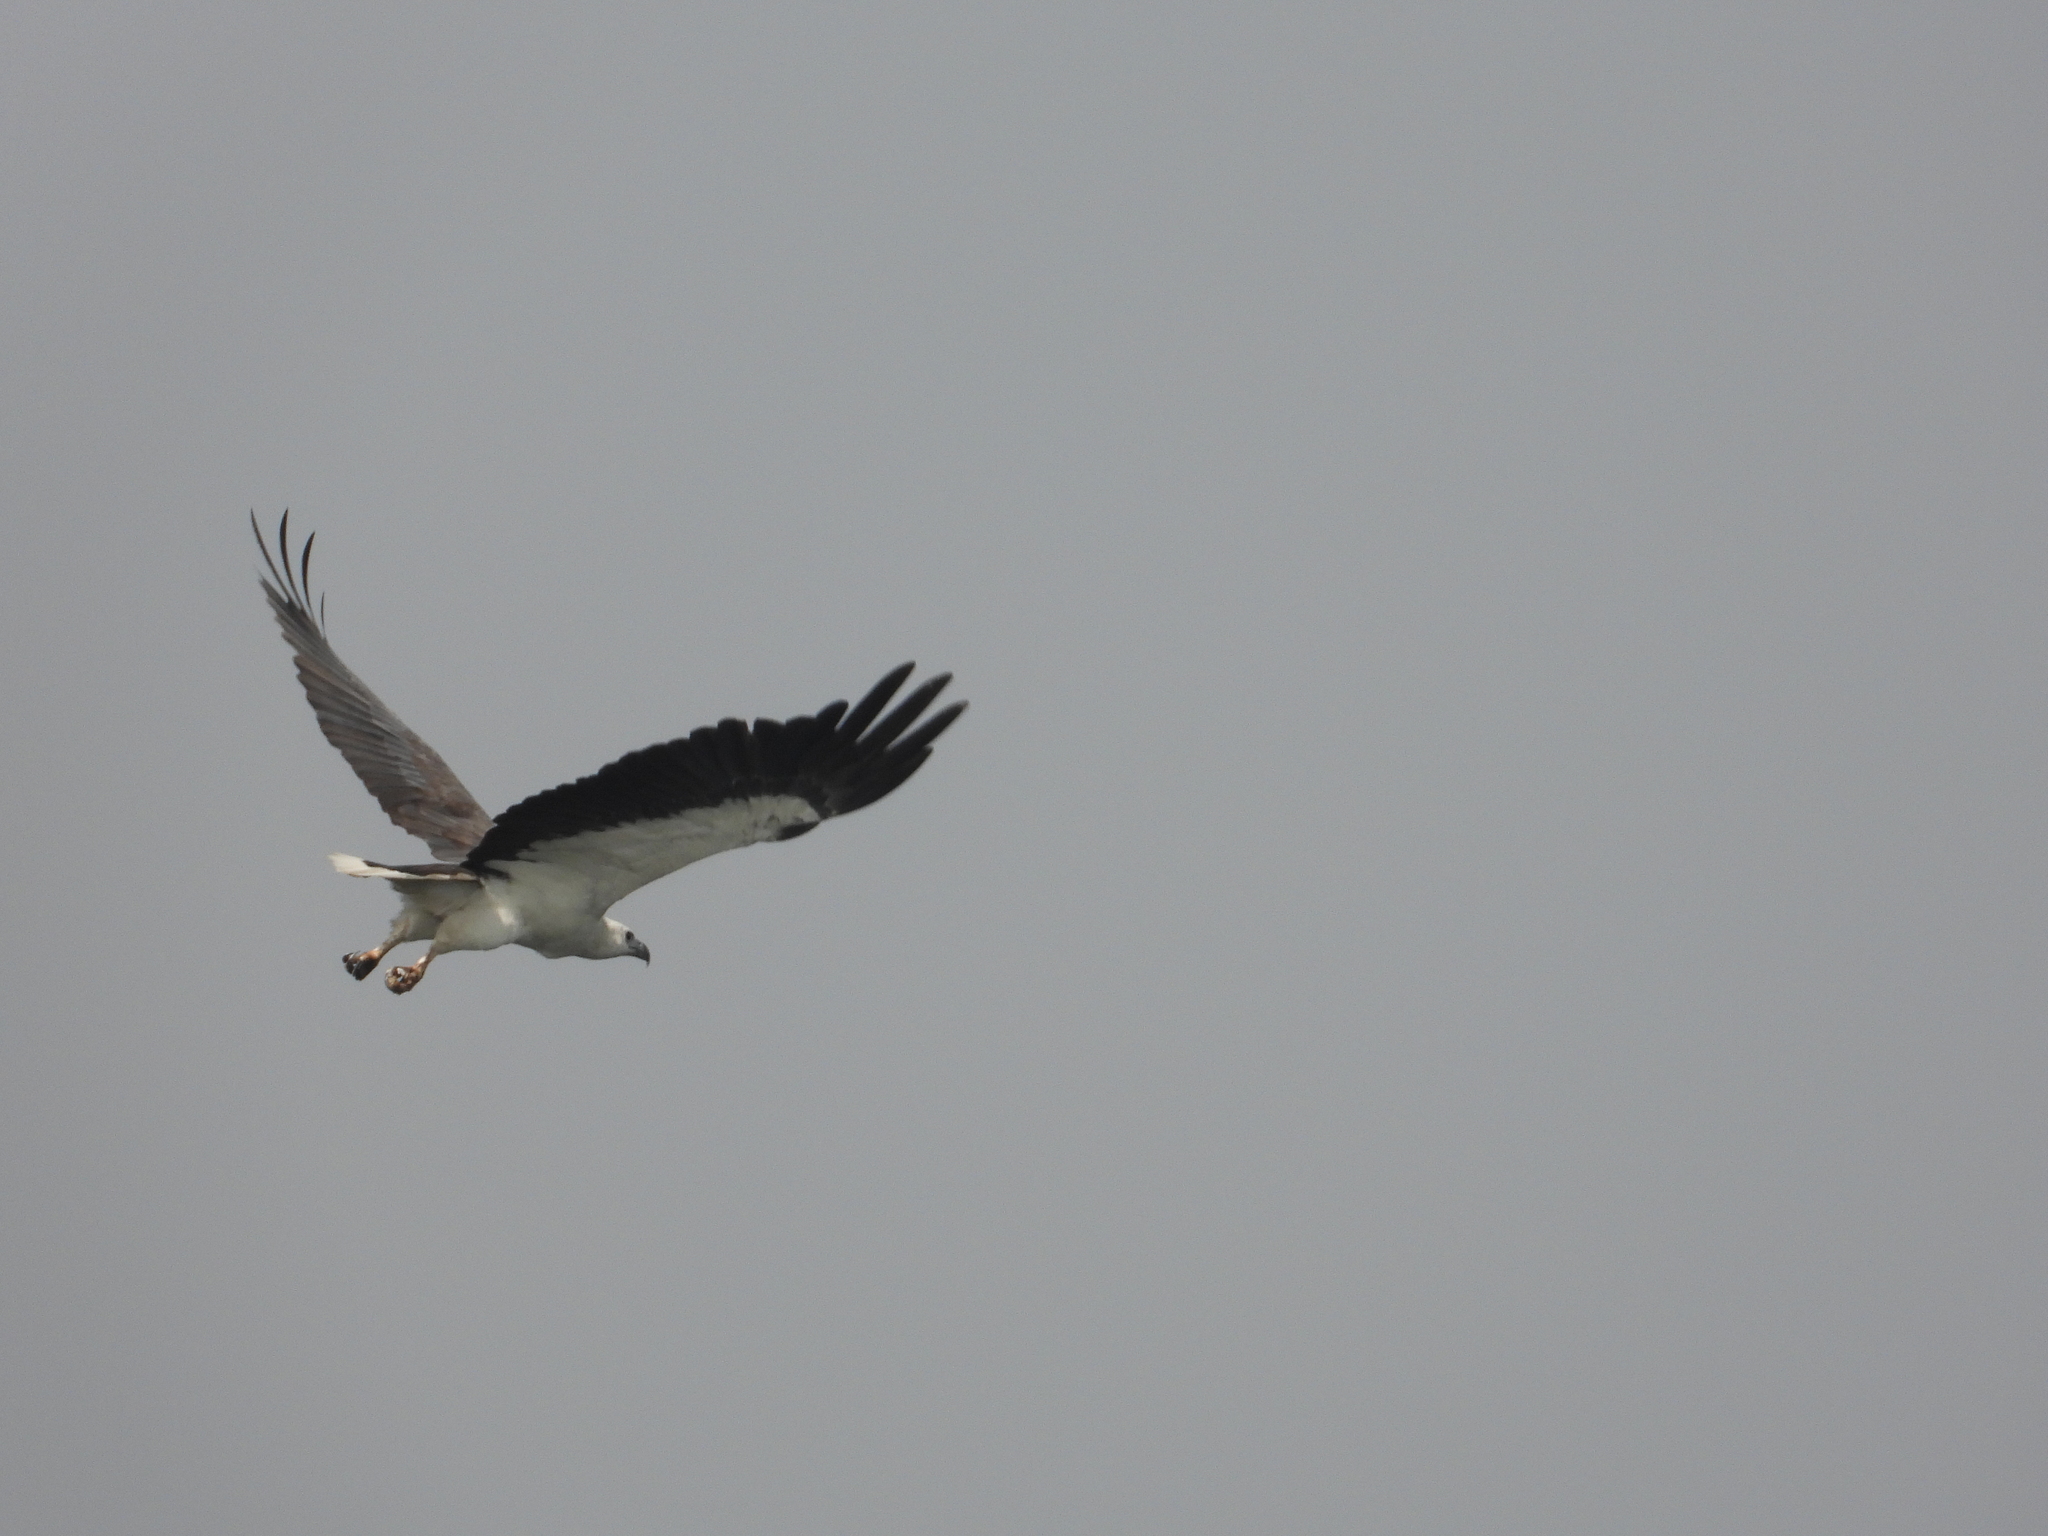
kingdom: Animalia
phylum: Chordata
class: Aves
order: Accipitriformes
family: Accipitridae
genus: Haliaeetus
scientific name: Haliaeetus leucogaster
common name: White-bellied sea eagle
